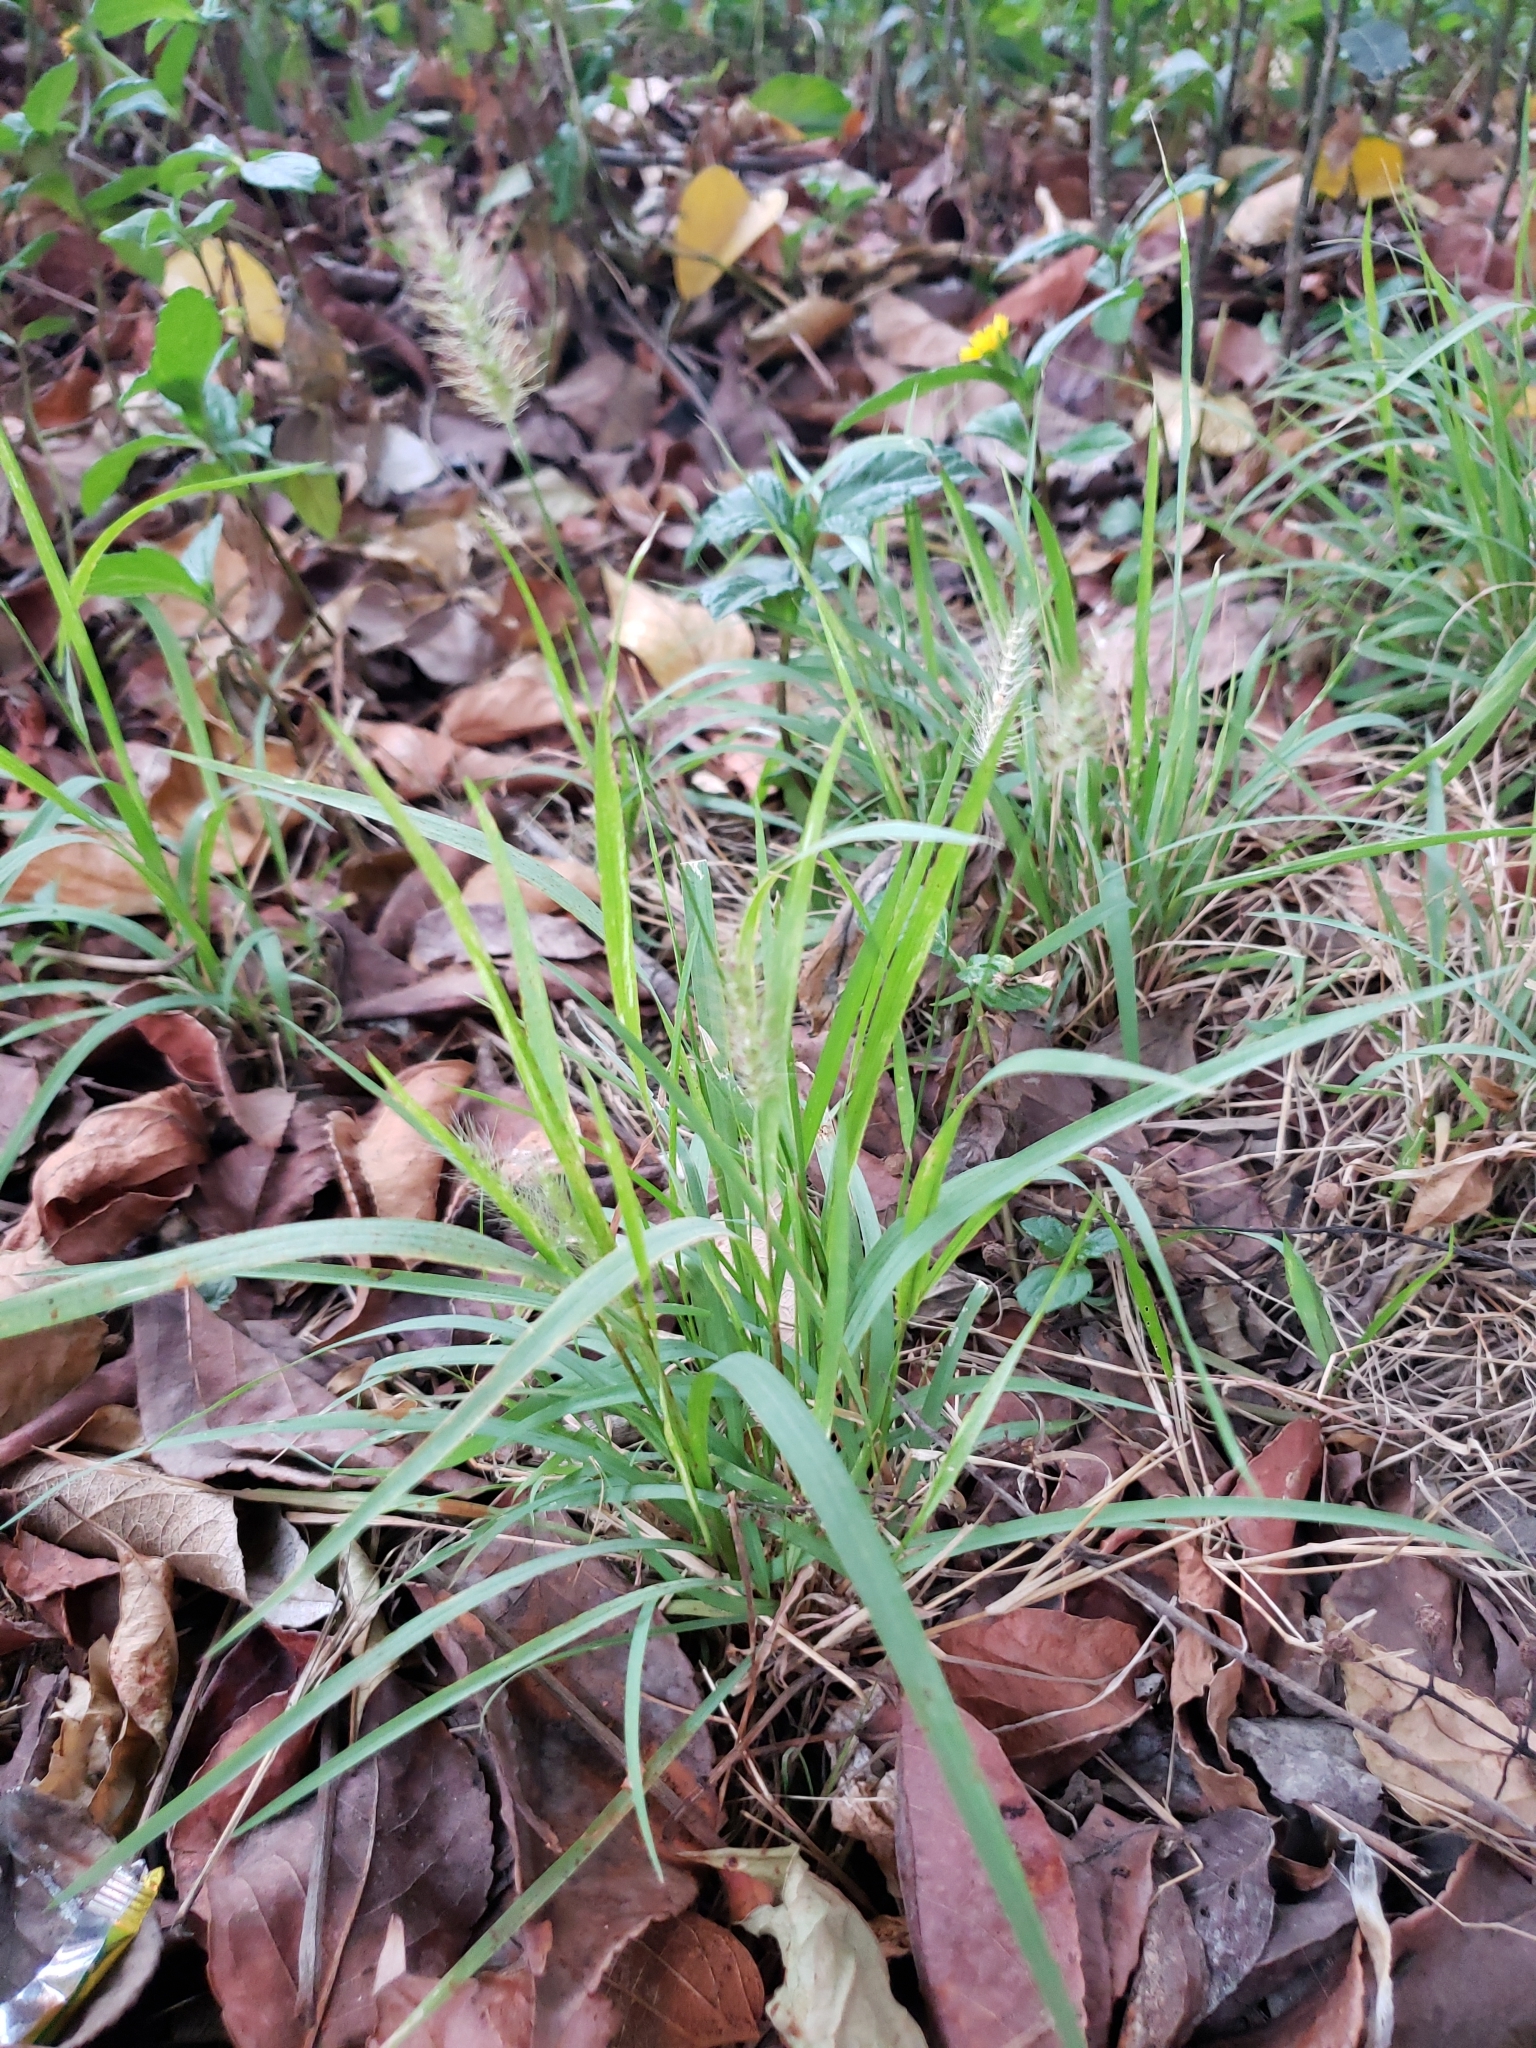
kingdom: Plantae
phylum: Tracheophyta
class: Liliopsida
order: Poales
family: Poaceae
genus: Setaria
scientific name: Setaria parviflora
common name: Knotroot bristle-grass
